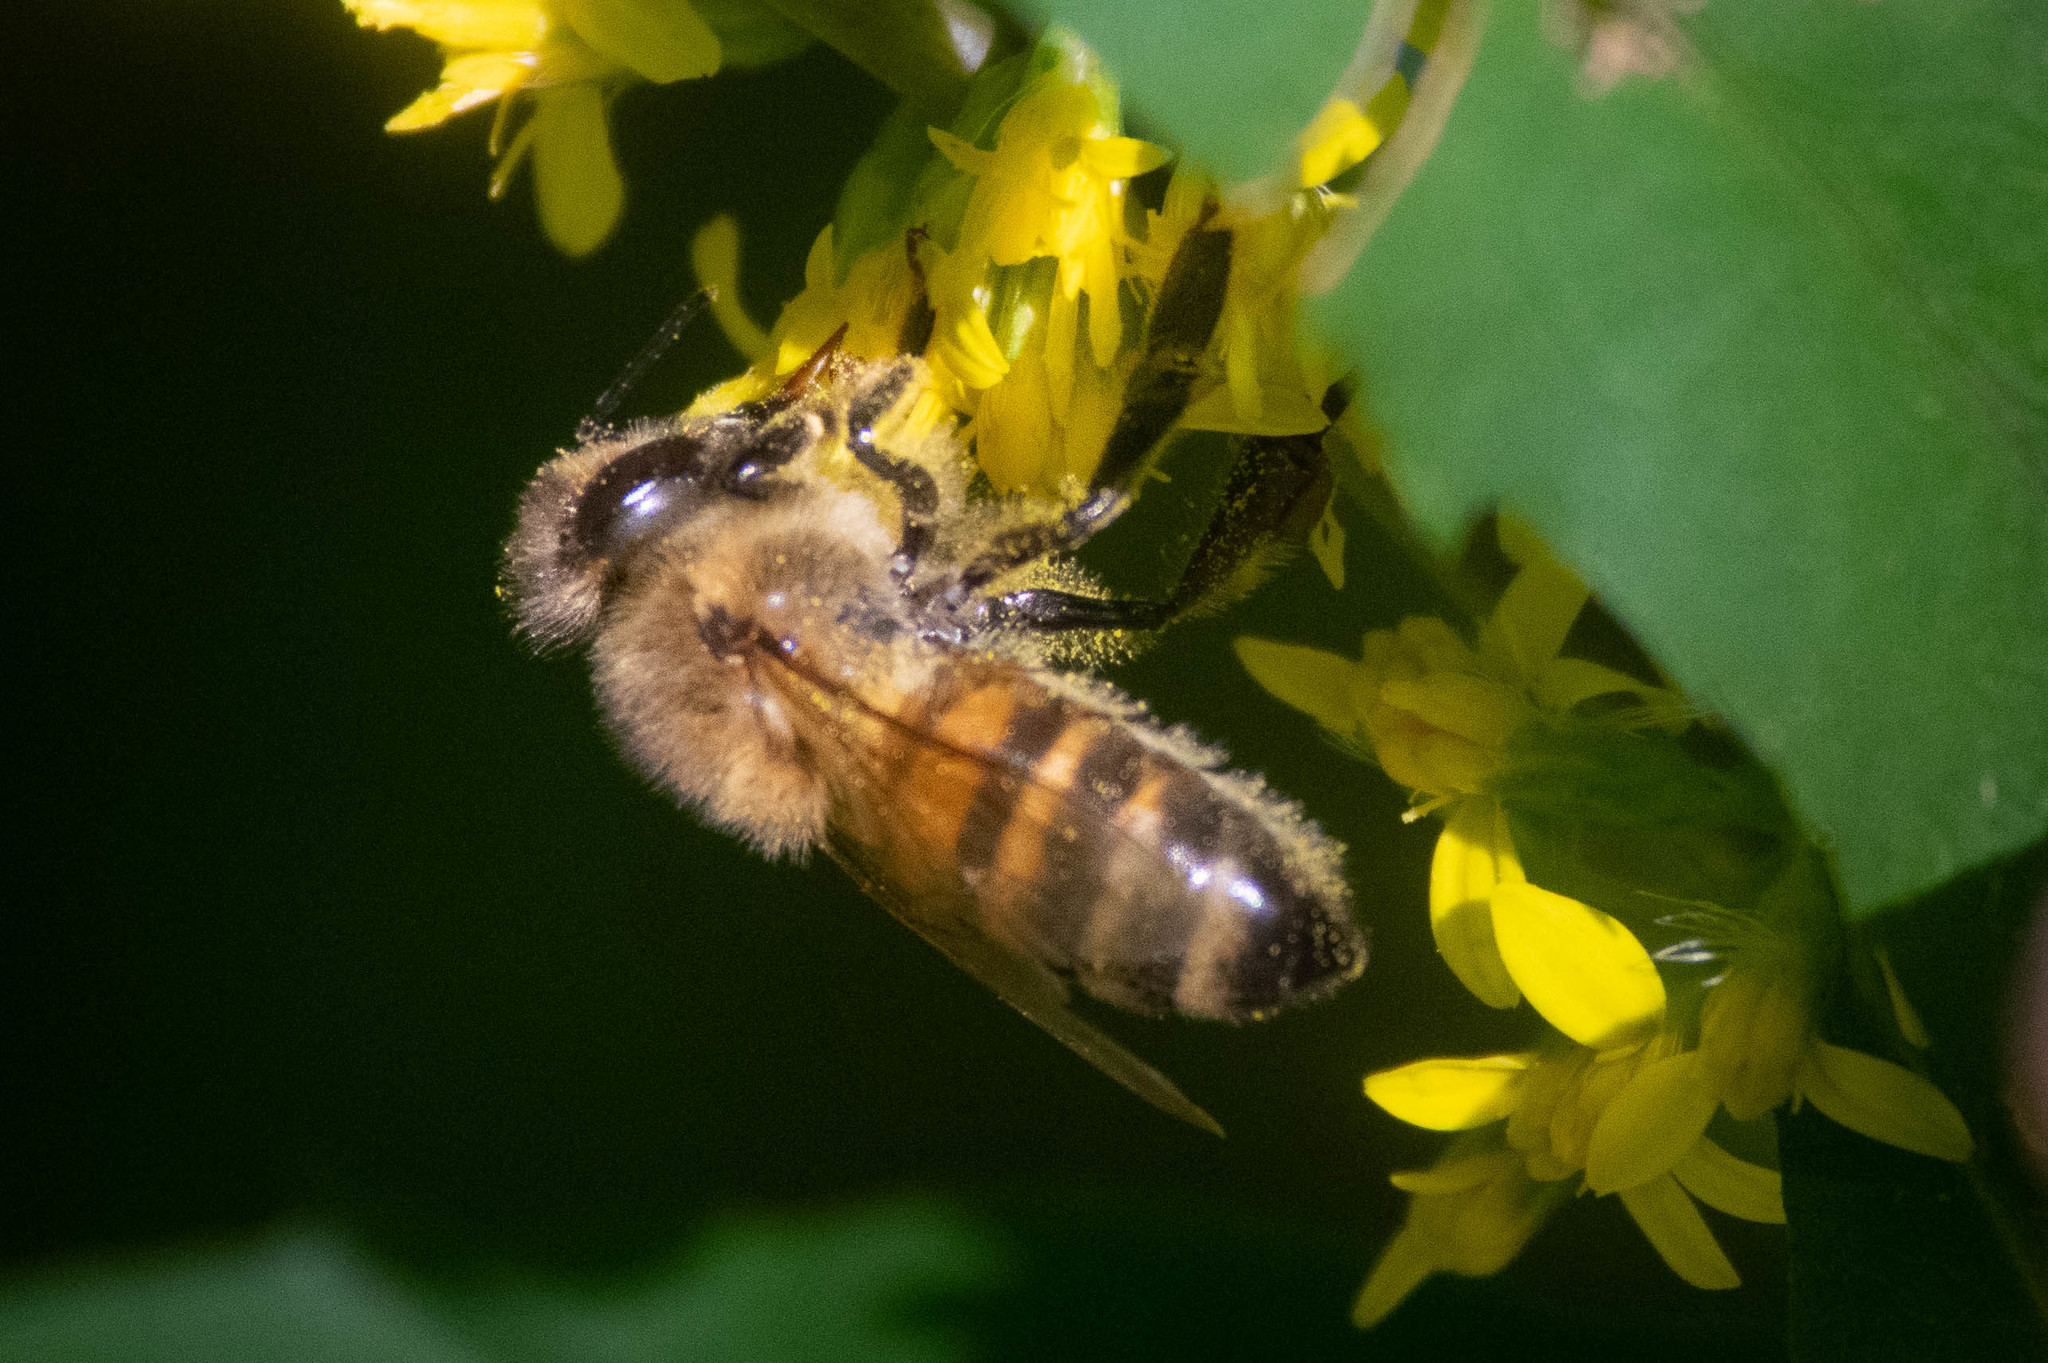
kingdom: Animalia
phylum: Arthropoda
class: Insecta
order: Hymenoptera
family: Apidae
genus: Apis
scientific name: Apis mellifera
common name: Honey bee
